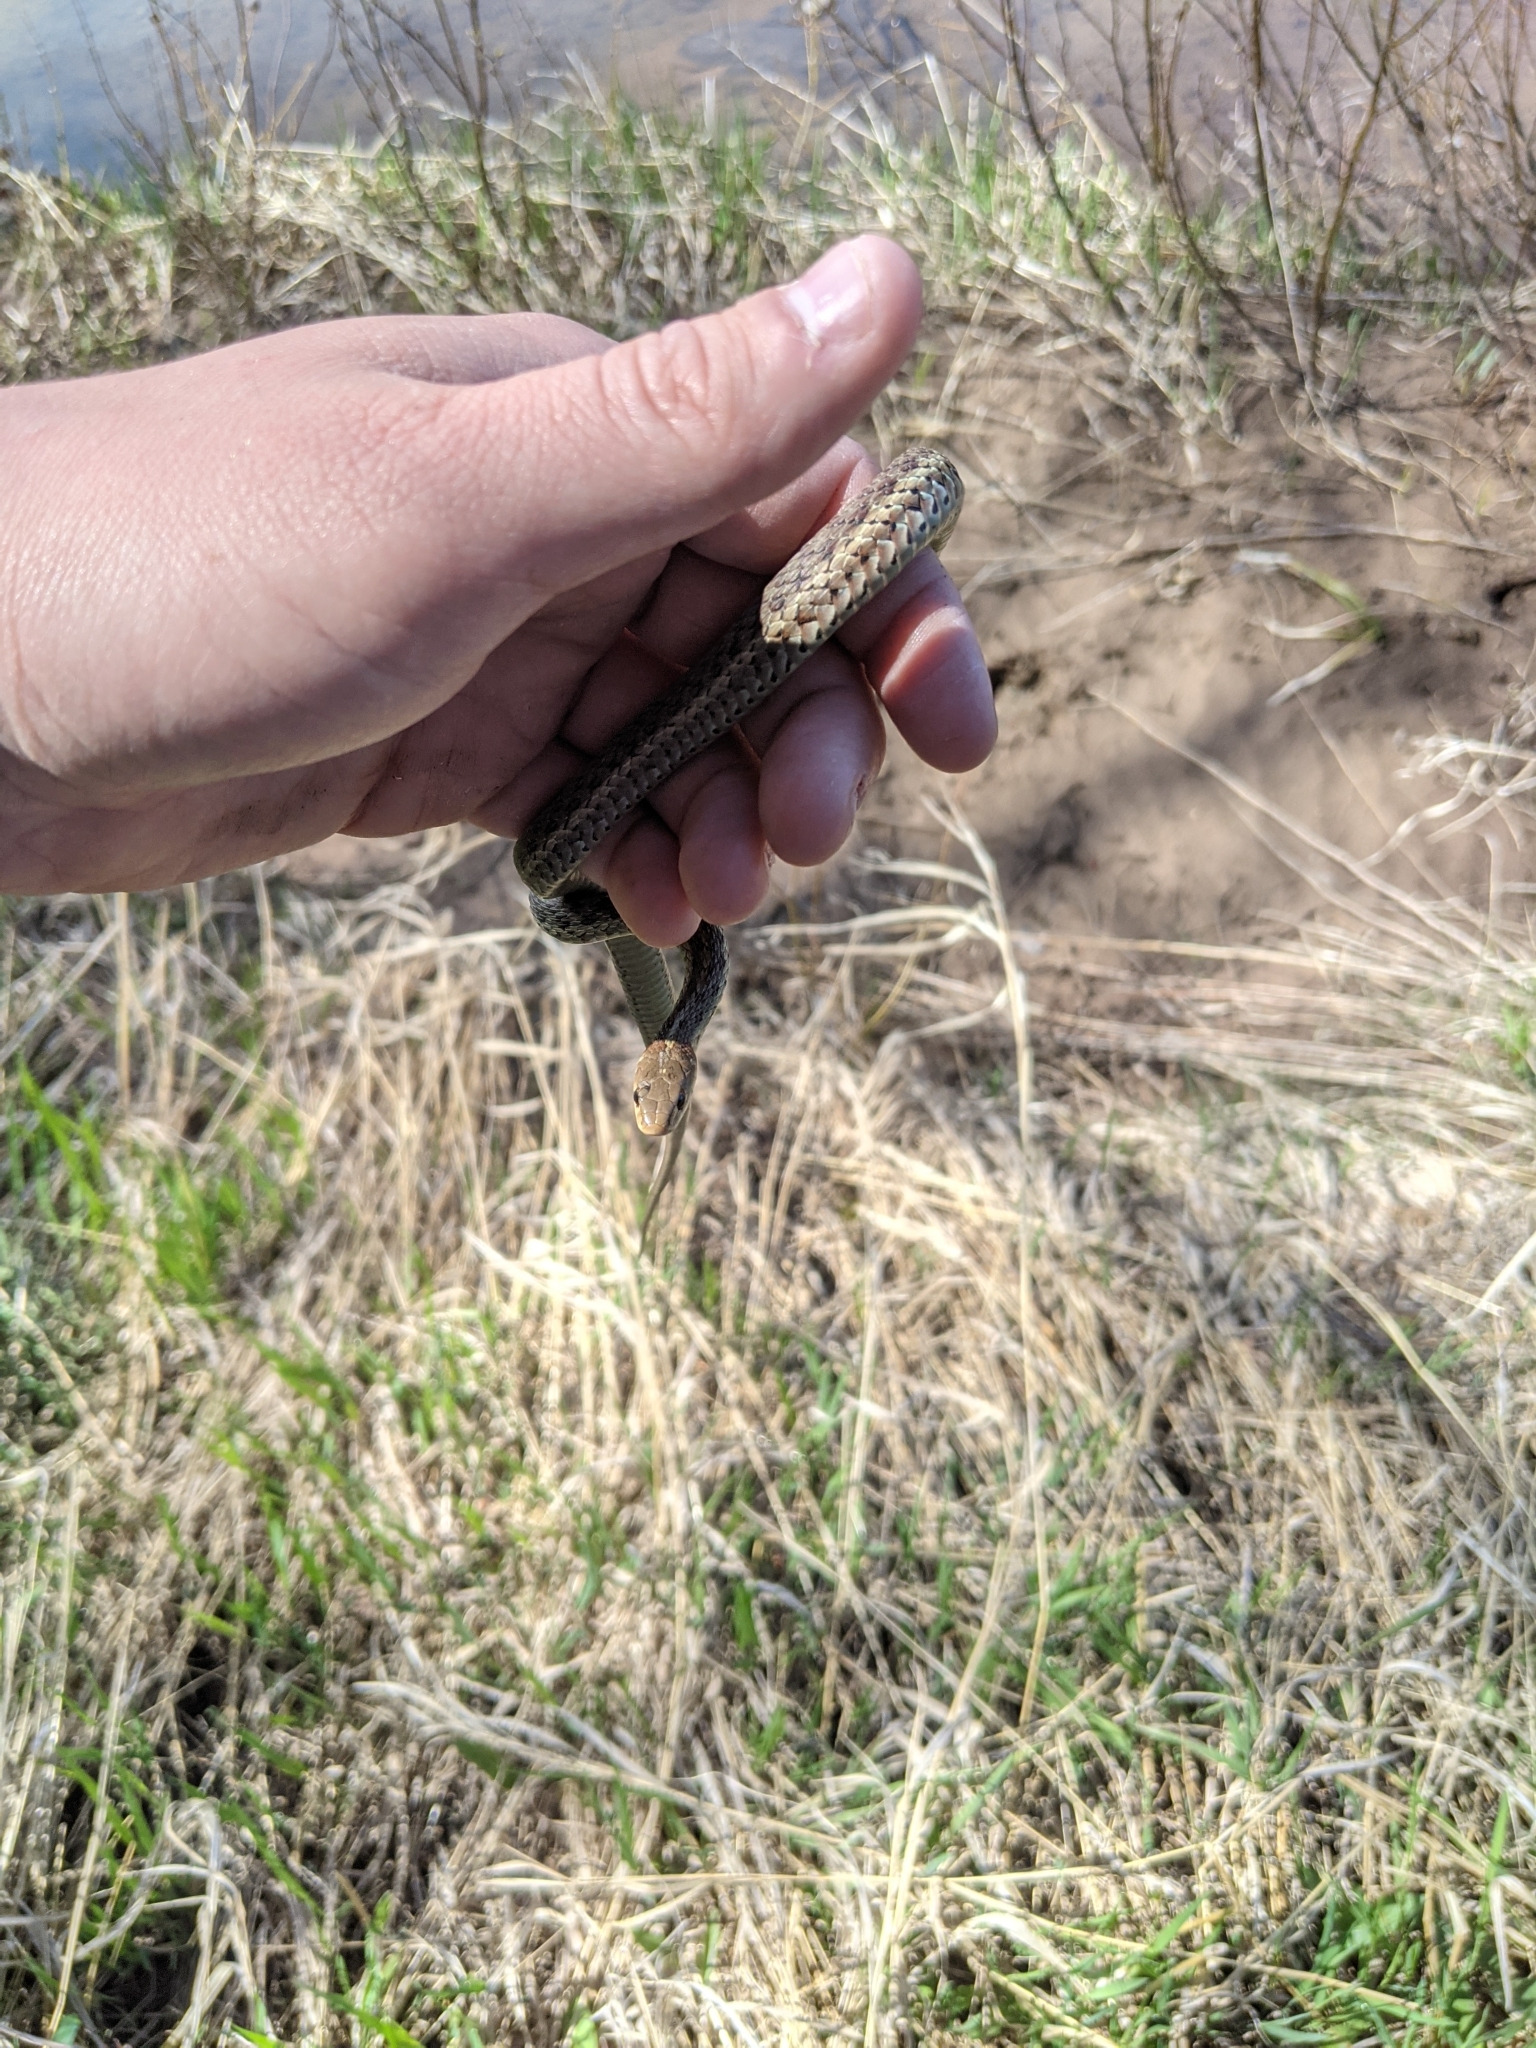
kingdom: Animalia
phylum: Chordata
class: Squamata
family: Colubridae
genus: Thamnophis
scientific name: Thamnophis sirtalis
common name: Common garter snake
